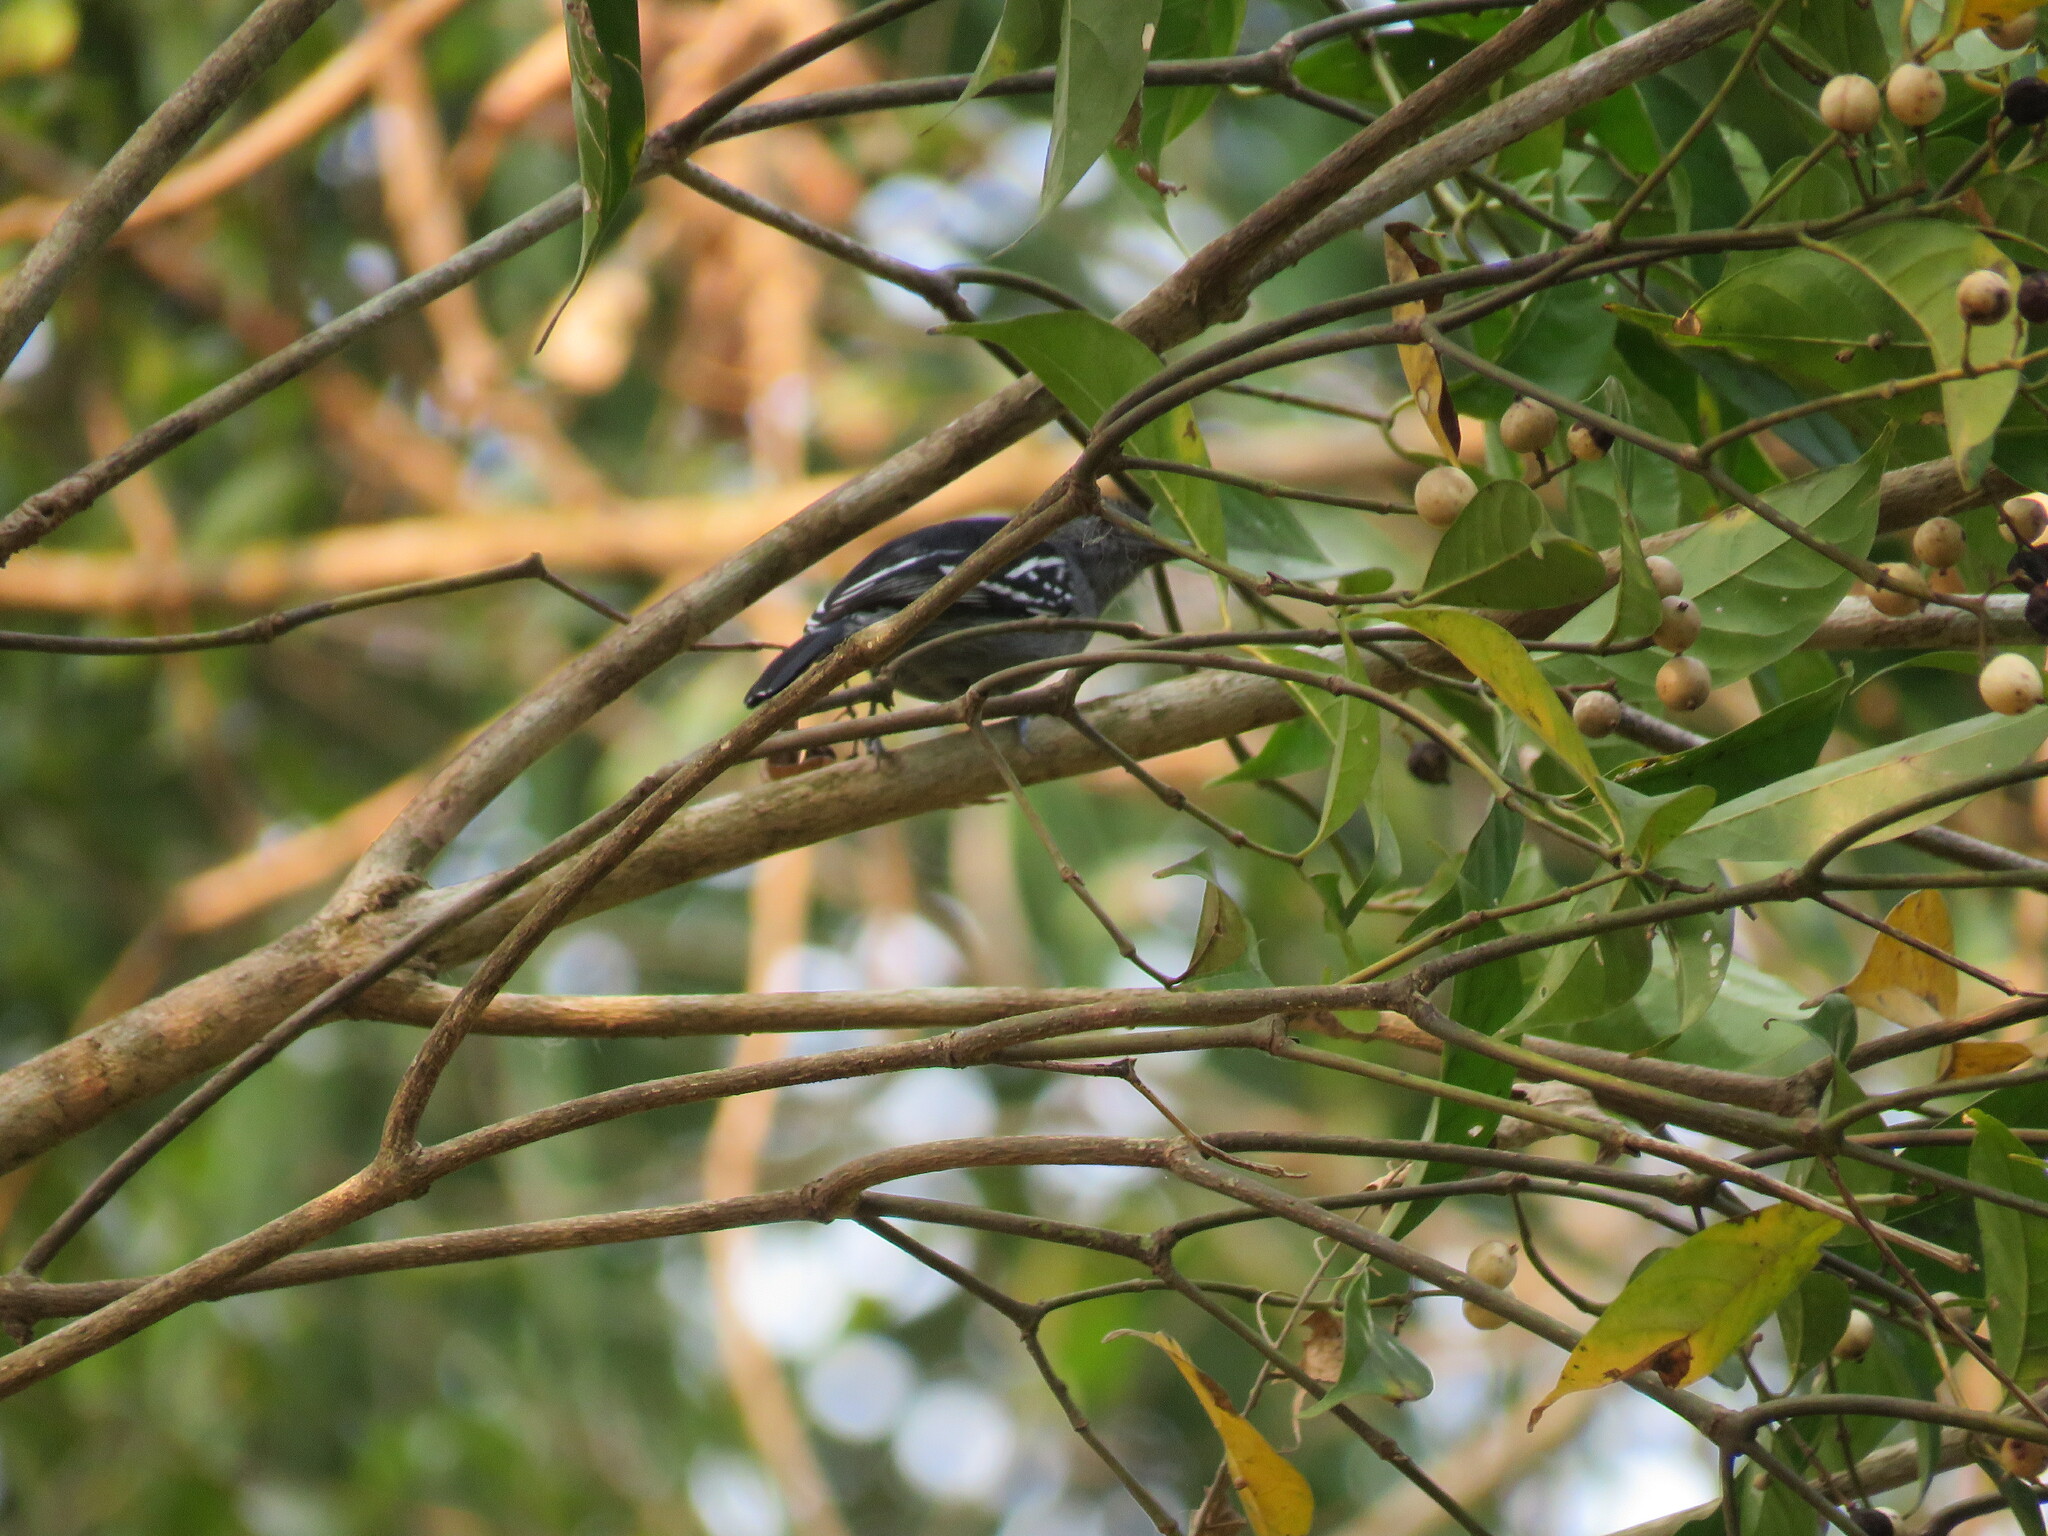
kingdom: Animalia
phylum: Chordata
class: Aves
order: Passeriformes
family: Thamnophilidae
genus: Thamnophilus
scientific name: Thamnophilus amazonicus
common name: Amazonian antshrike
